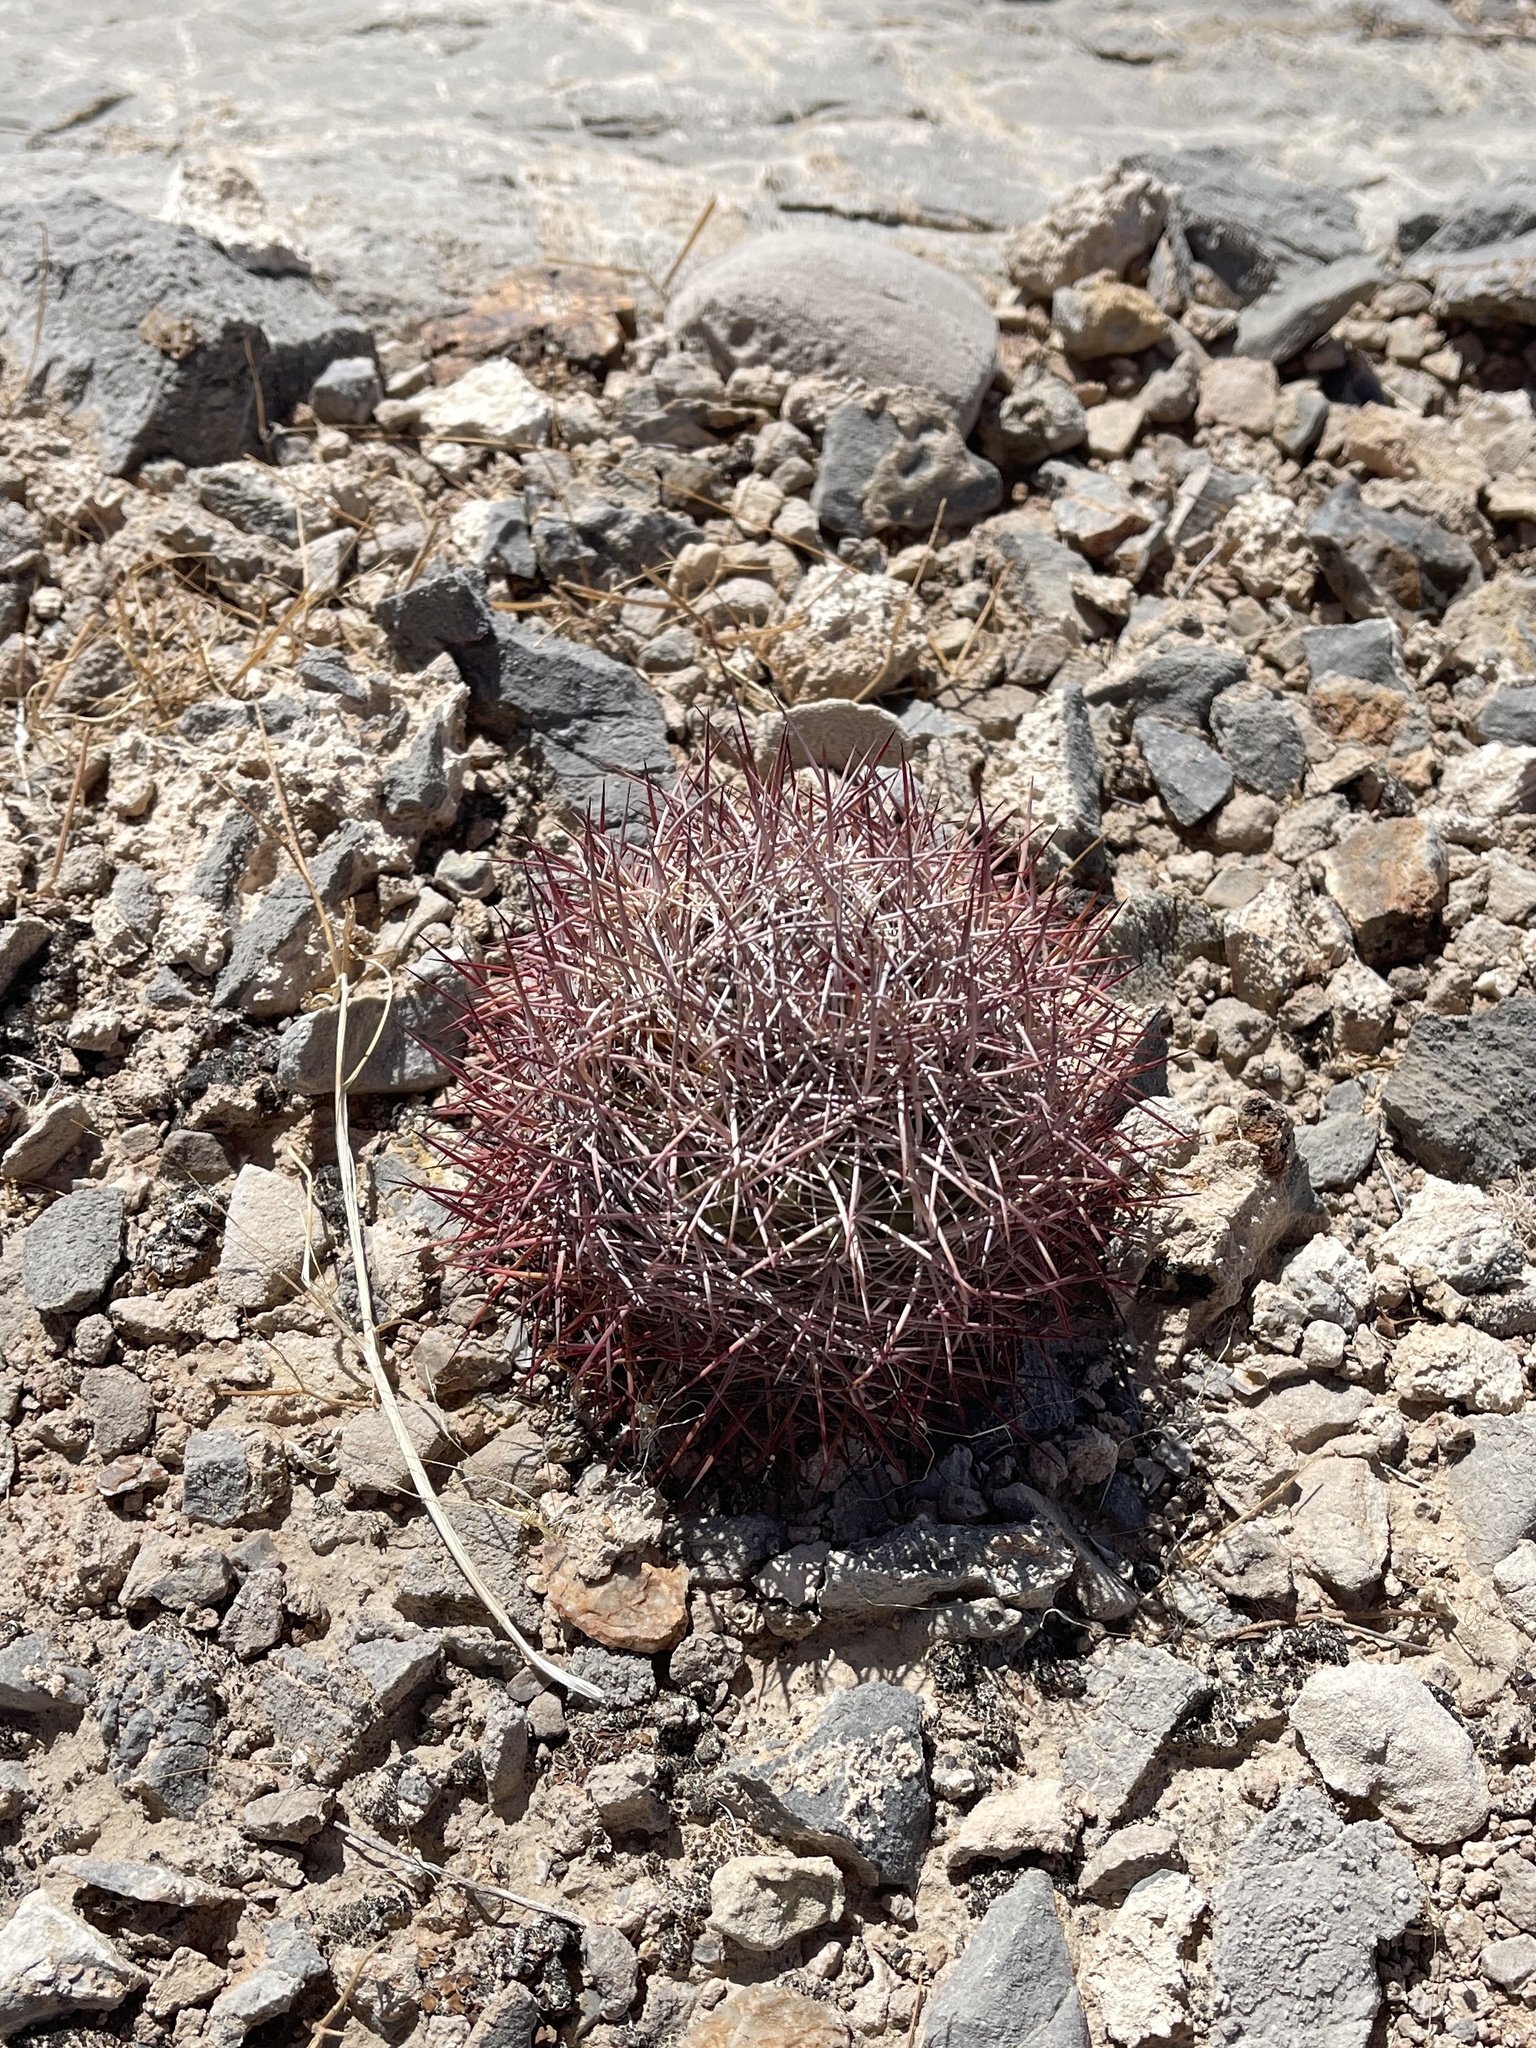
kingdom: Plantae
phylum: Tracheophyta
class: Magnoliopsida
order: Caryophyllales
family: Cactaceae
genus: Sclerocactus
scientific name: Sclerocactus johnsonii
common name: Eight-spine fishhook cactus
